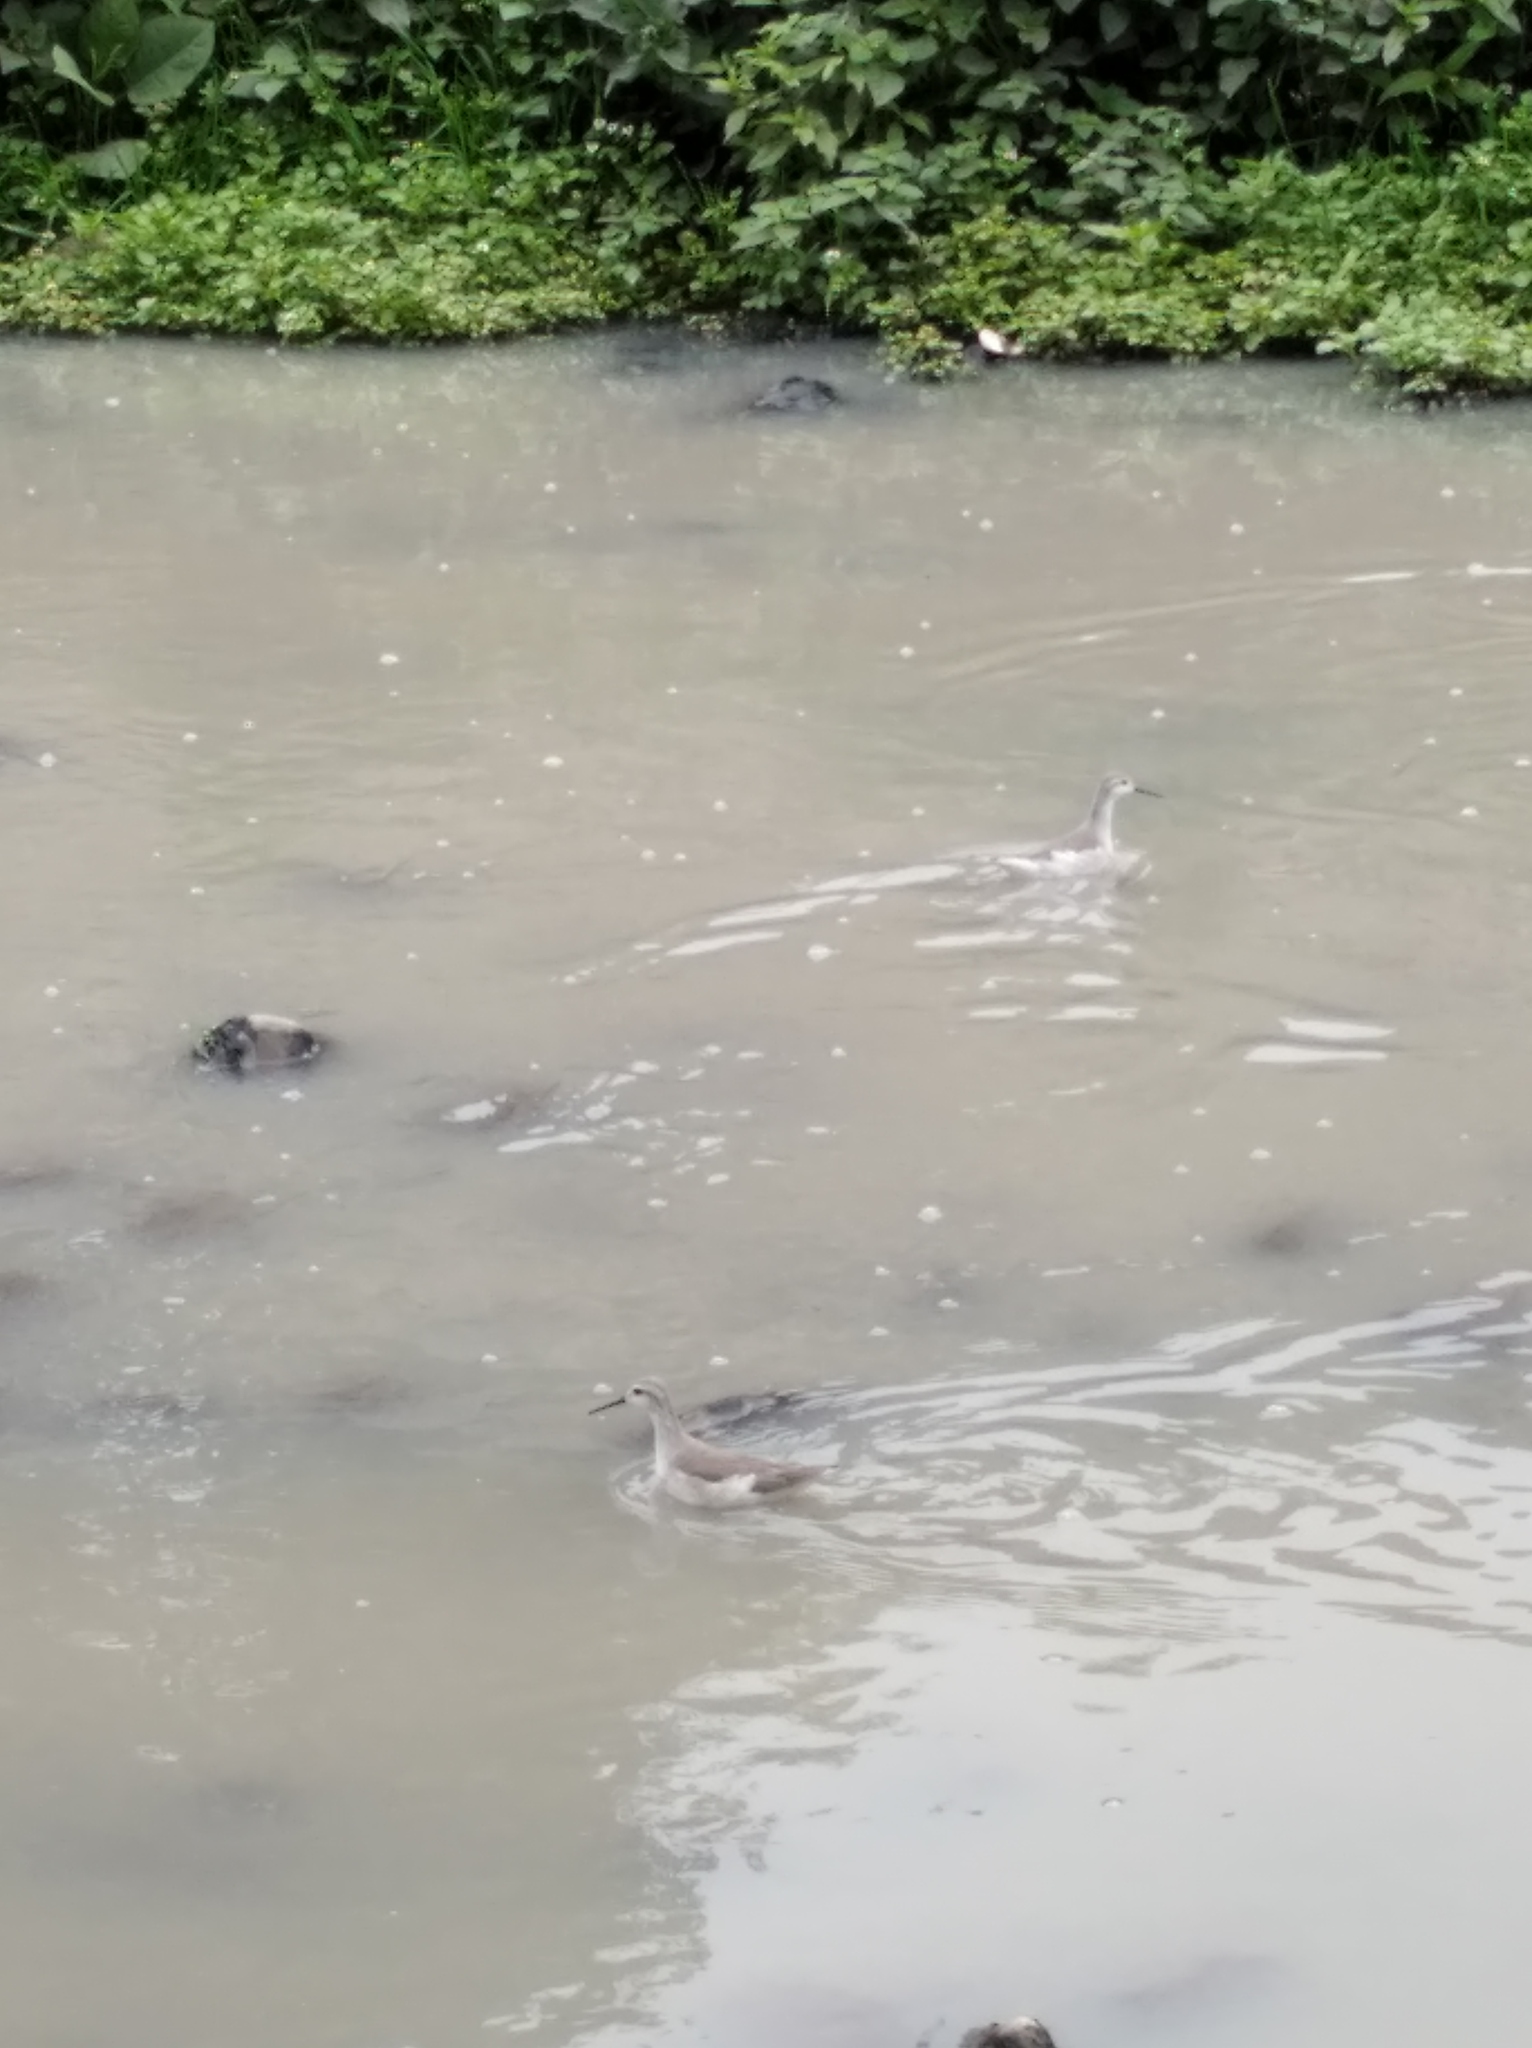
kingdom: Animalia
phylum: Chordata
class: Aves
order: Charadriiformes
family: Scolopacidae
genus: Phalaropus
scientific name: Phalaropus tricolor
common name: Wilson's phalarope
